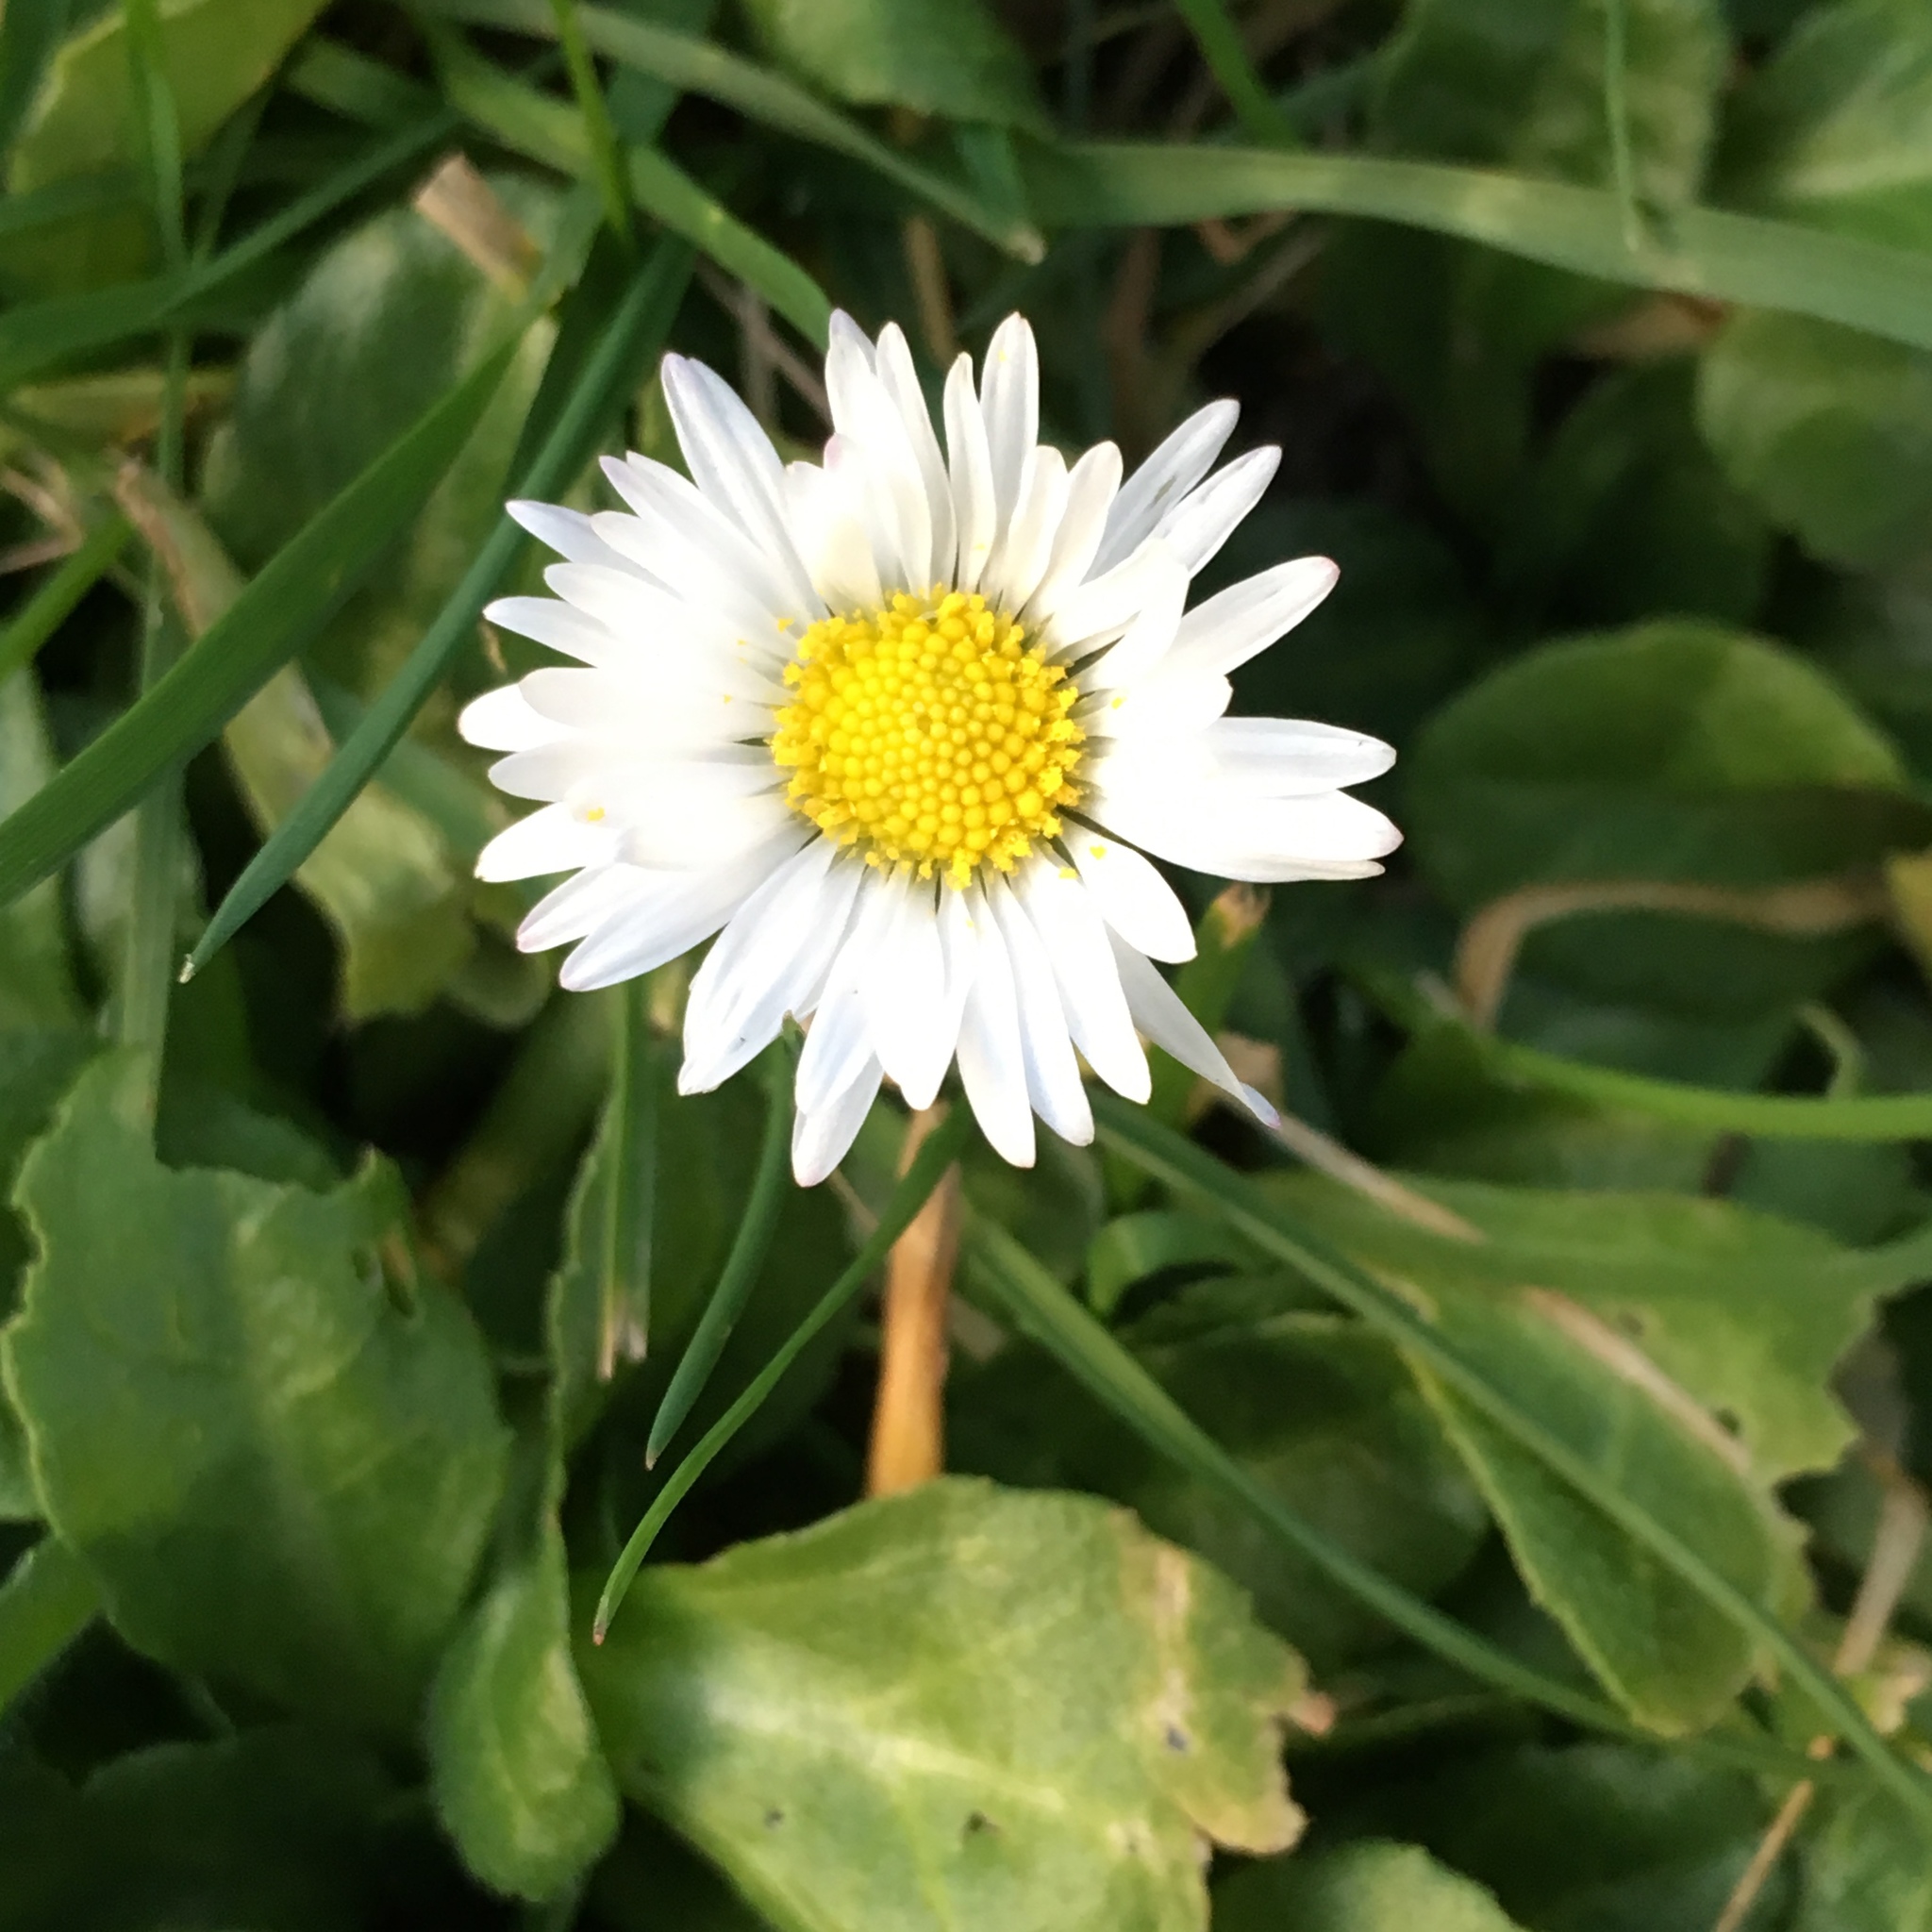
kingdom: Plantae
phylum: Tracheophyta
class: Magnoliopsida
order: Asterales
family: Asteraceae
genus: Bellis
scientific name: Bellis perennis
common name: Lawndaisy
